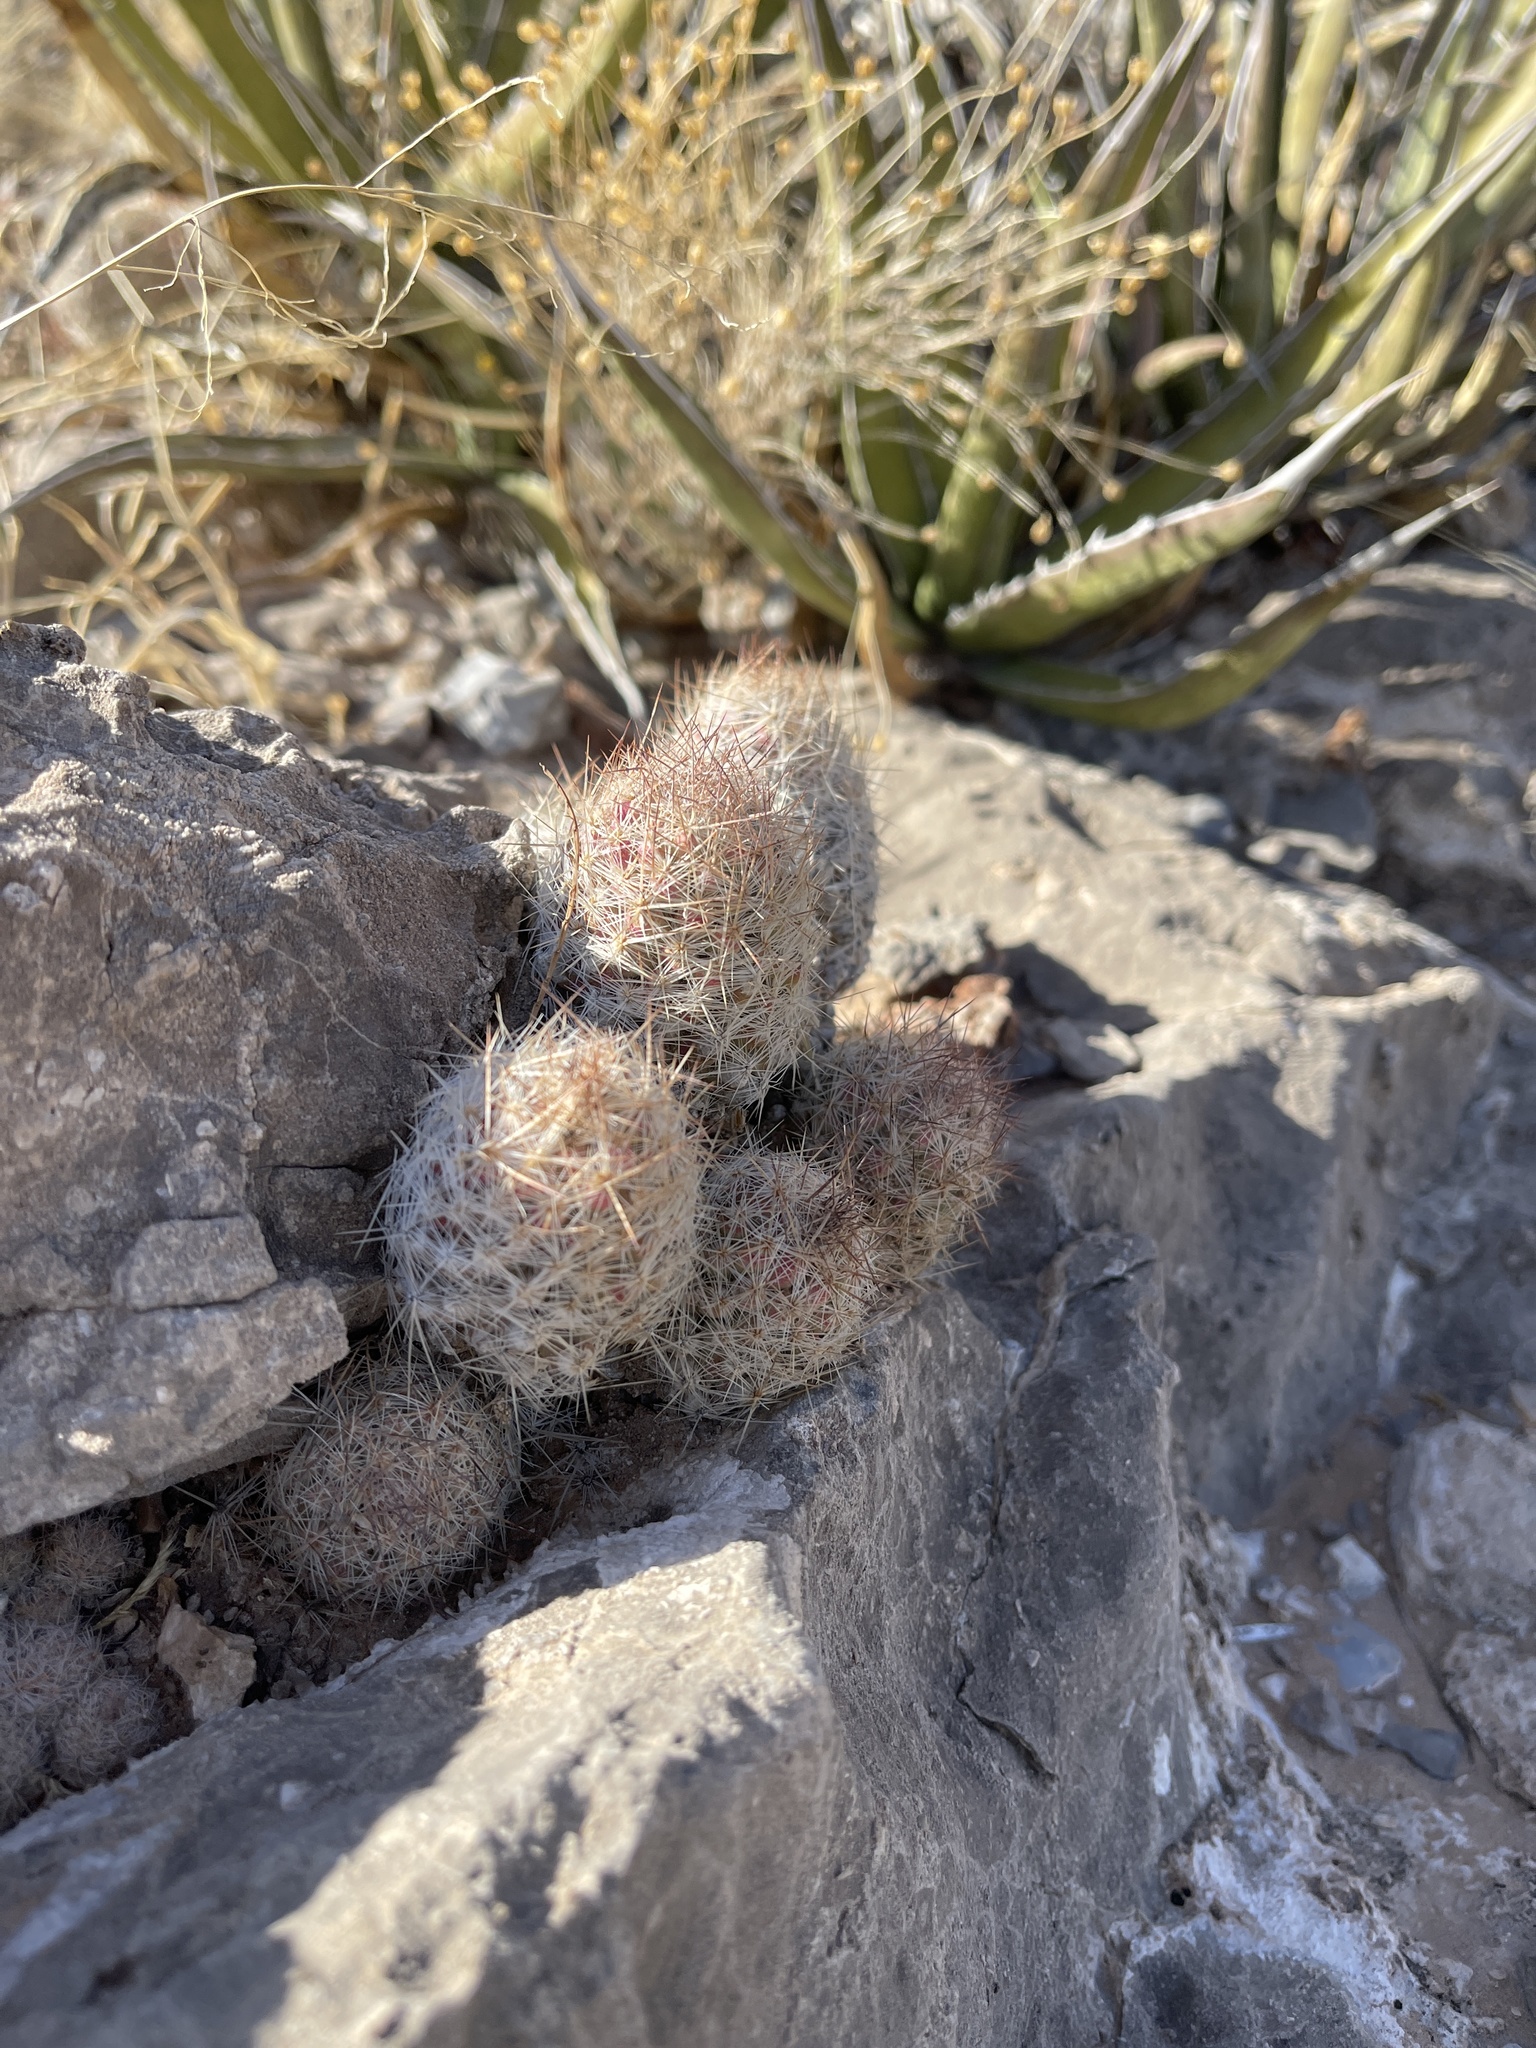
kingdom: Plantae
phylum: Tracheophyta
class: Magnoliopsida
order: Caryophyllales
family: Cactaceae
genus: Pelecyphora
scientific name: Pelecyphora tuberculosa
